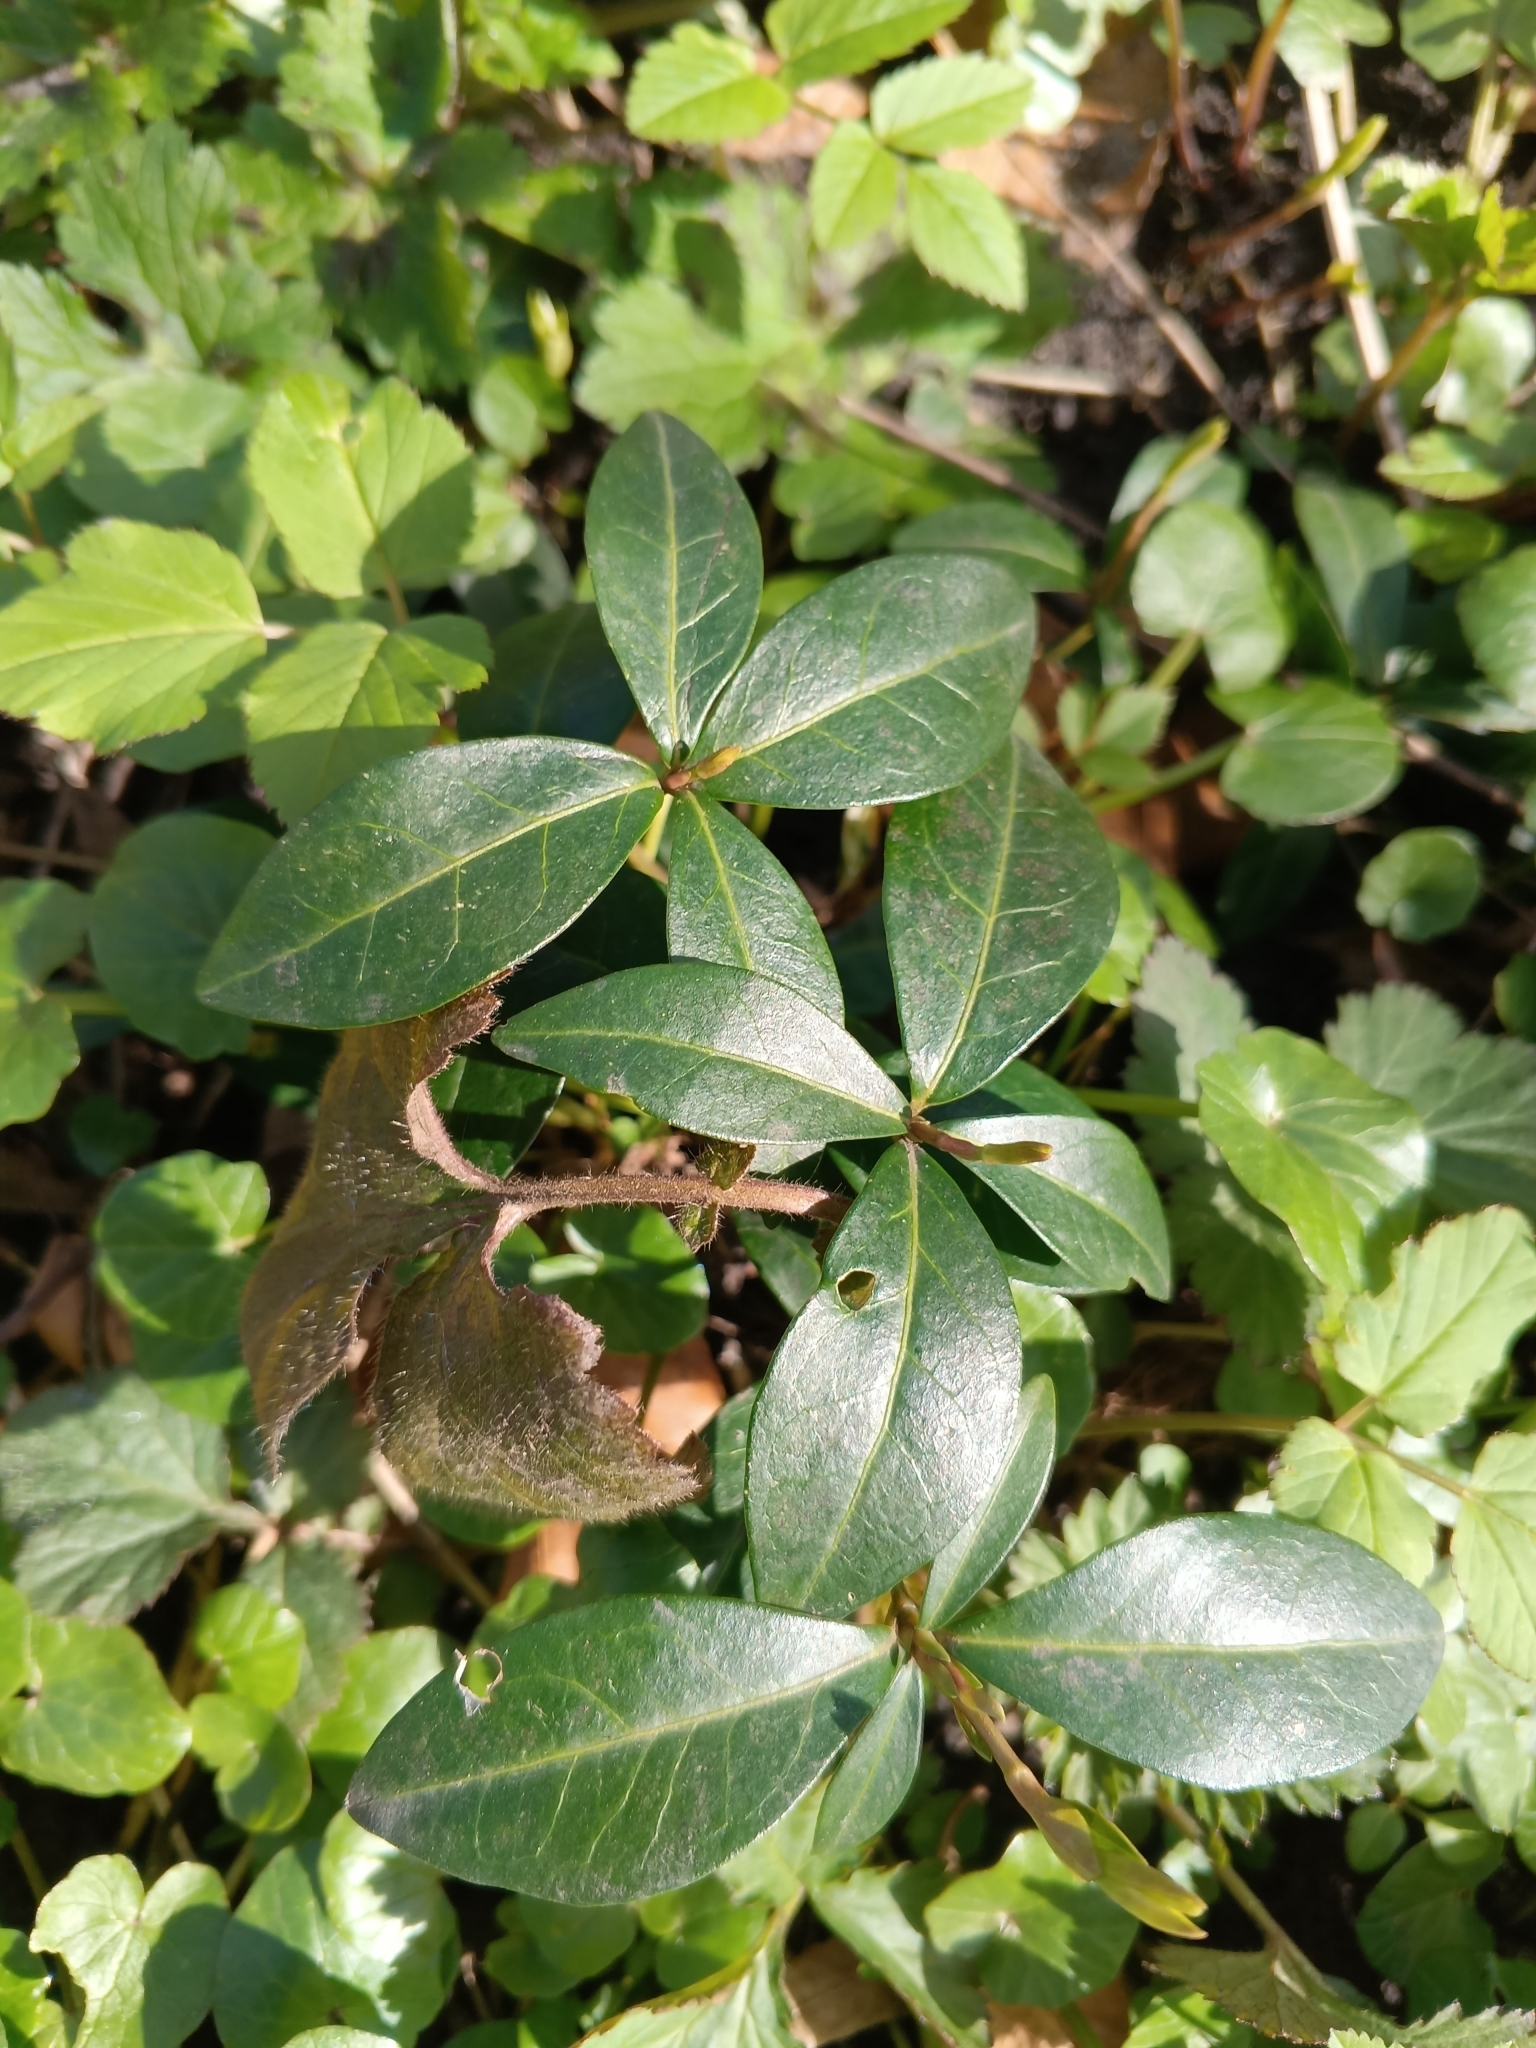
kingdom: Plantae
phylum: Tracheophyta
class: Magnoliopsida
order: Gentianales
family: Apocynaceae
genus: Vinca
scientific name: Vinca minor
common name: Lesser periwinkle
